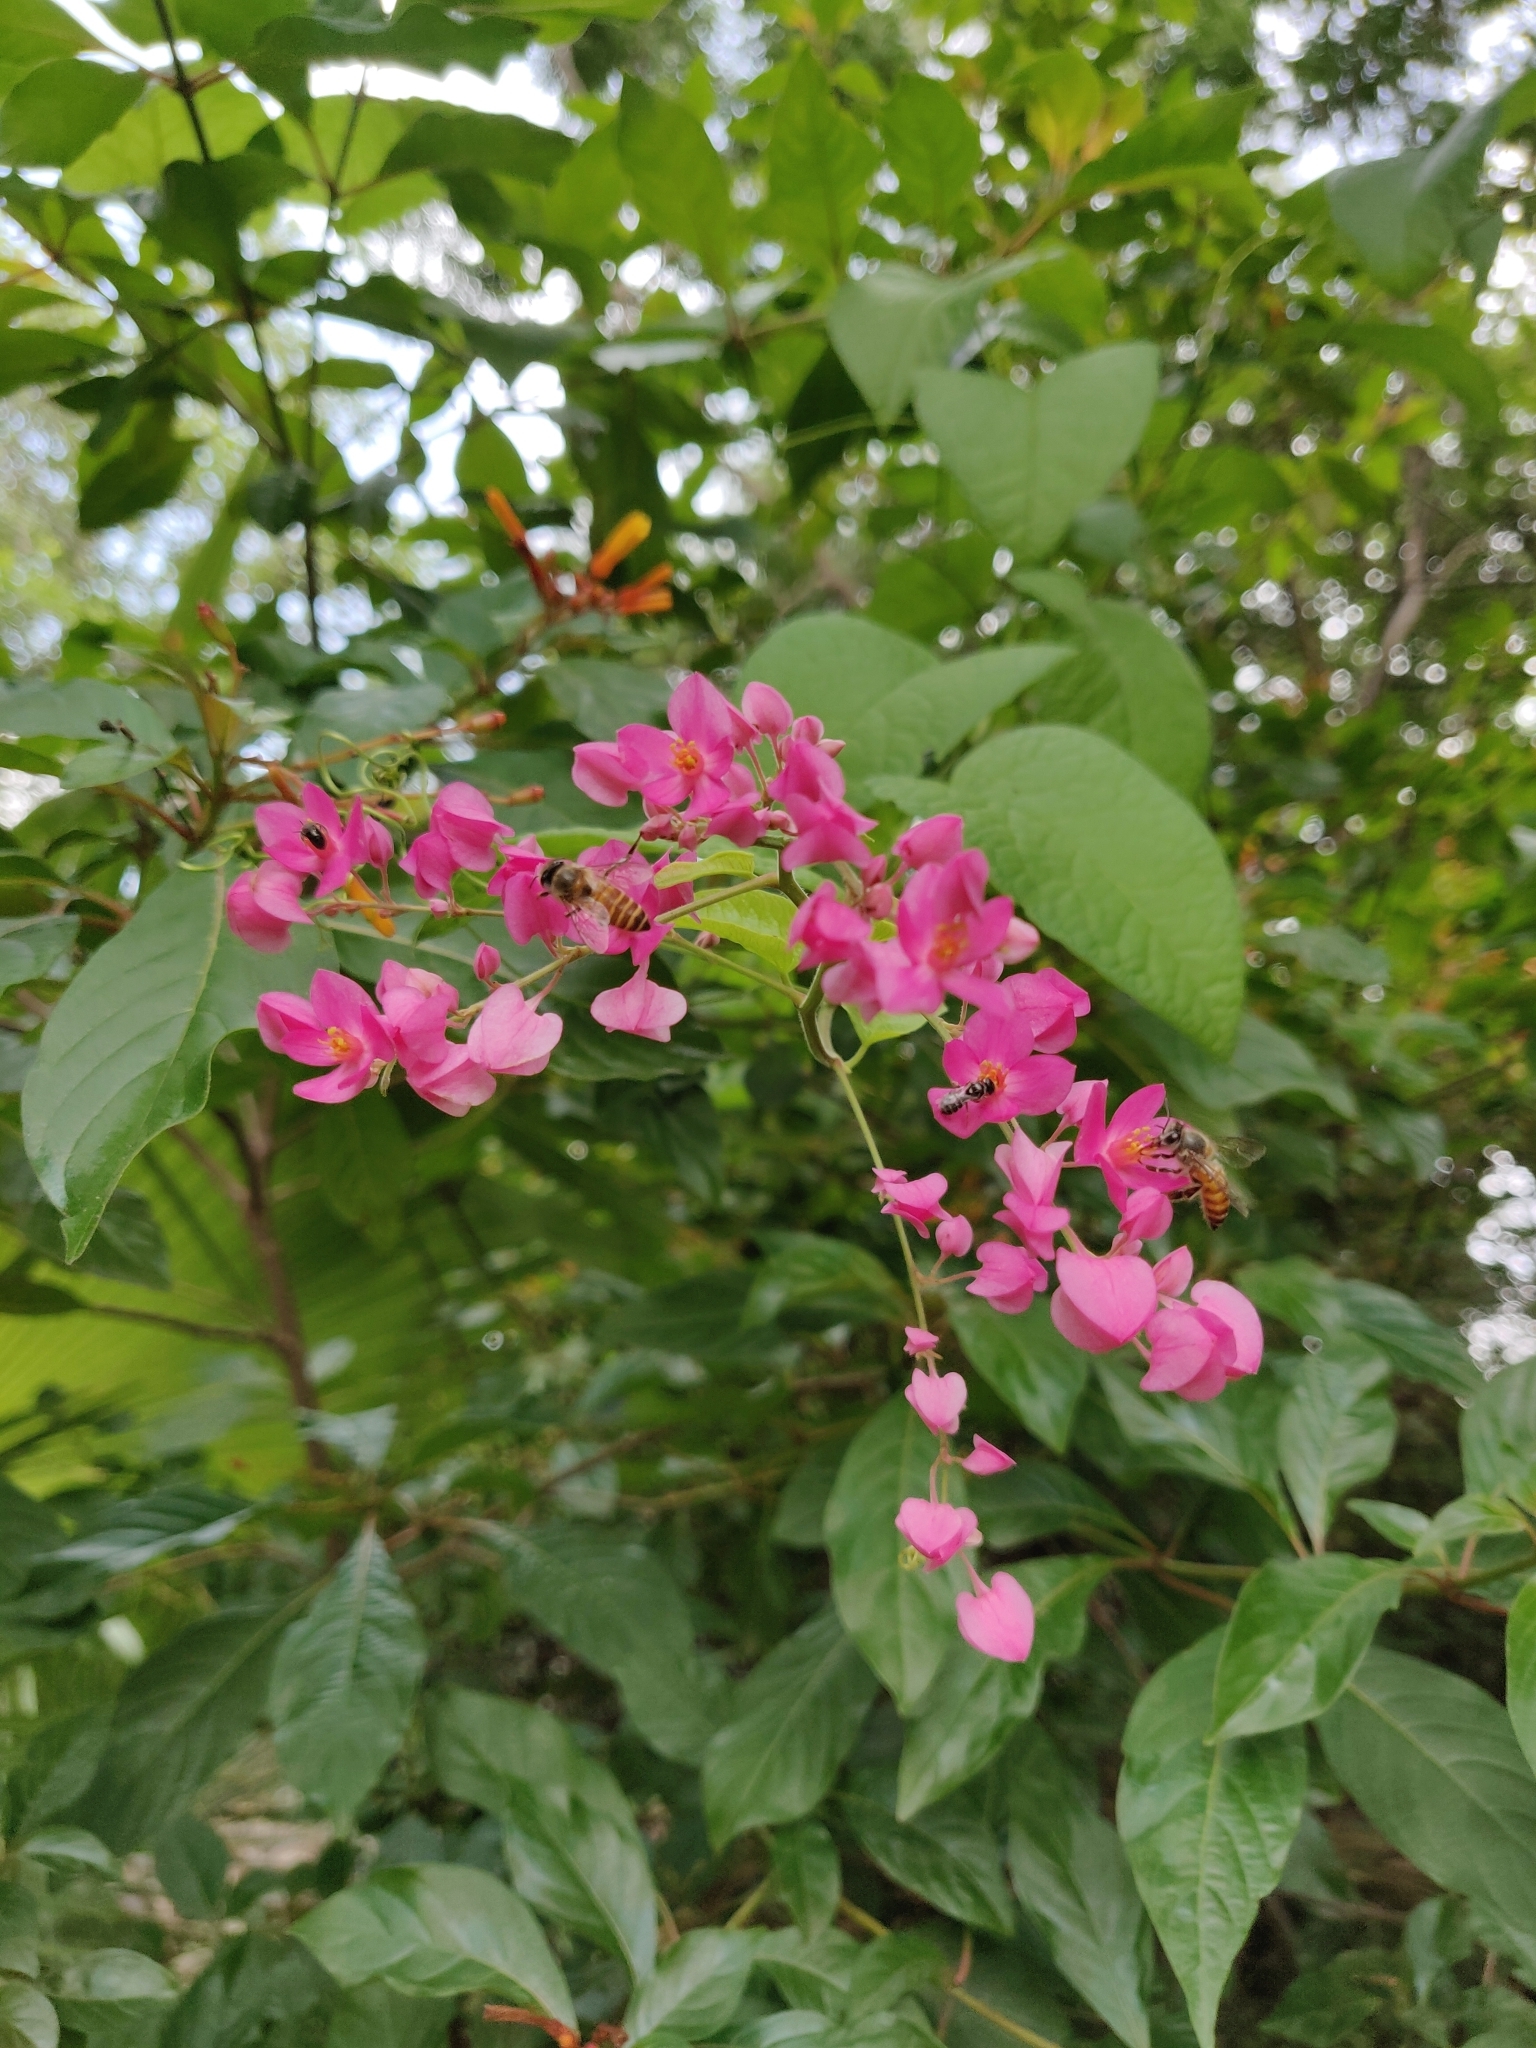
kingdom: Plantae
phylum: Tracheophyta
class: Magnoliopsida
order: Caryophyllales
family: Polygonaceae
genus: Antigonon
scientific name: Antigonon leptopus
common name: Coral vine
